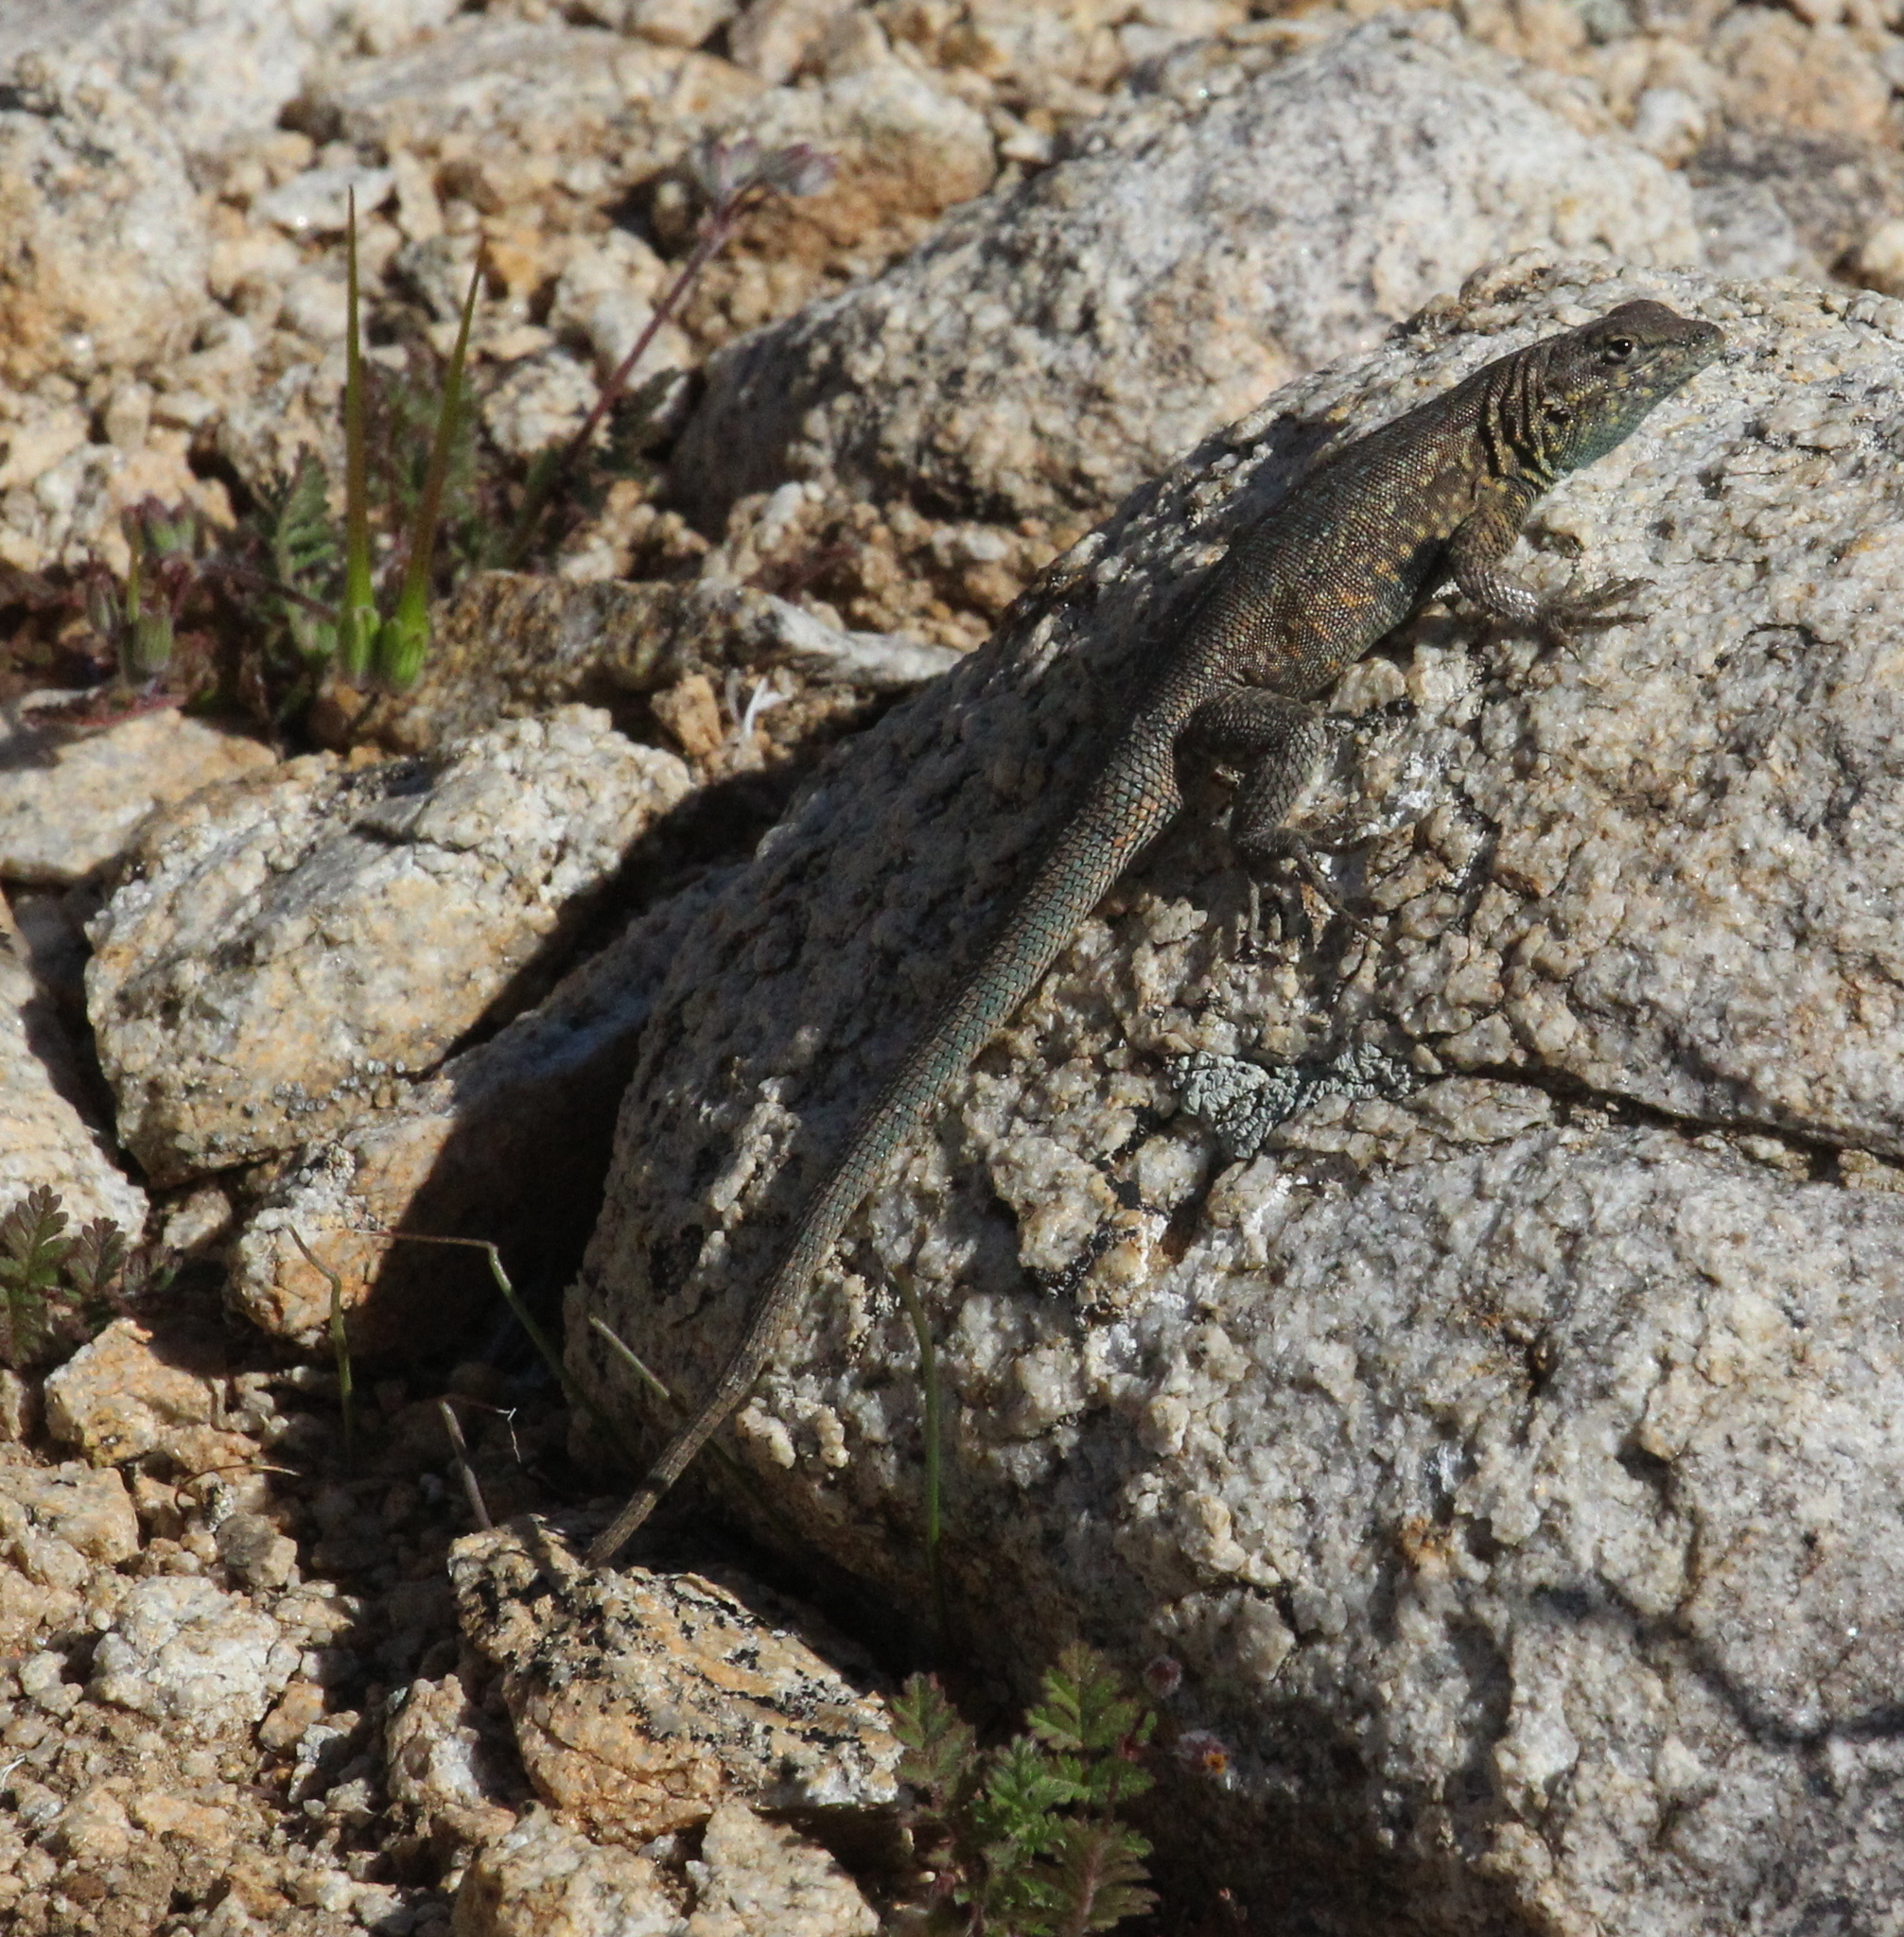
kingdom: Animalia
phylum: Chordata
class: Squamata
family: Phrynosomatidae
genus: Uta
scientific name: Uta stansburiana
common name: Side-blotched lizard
